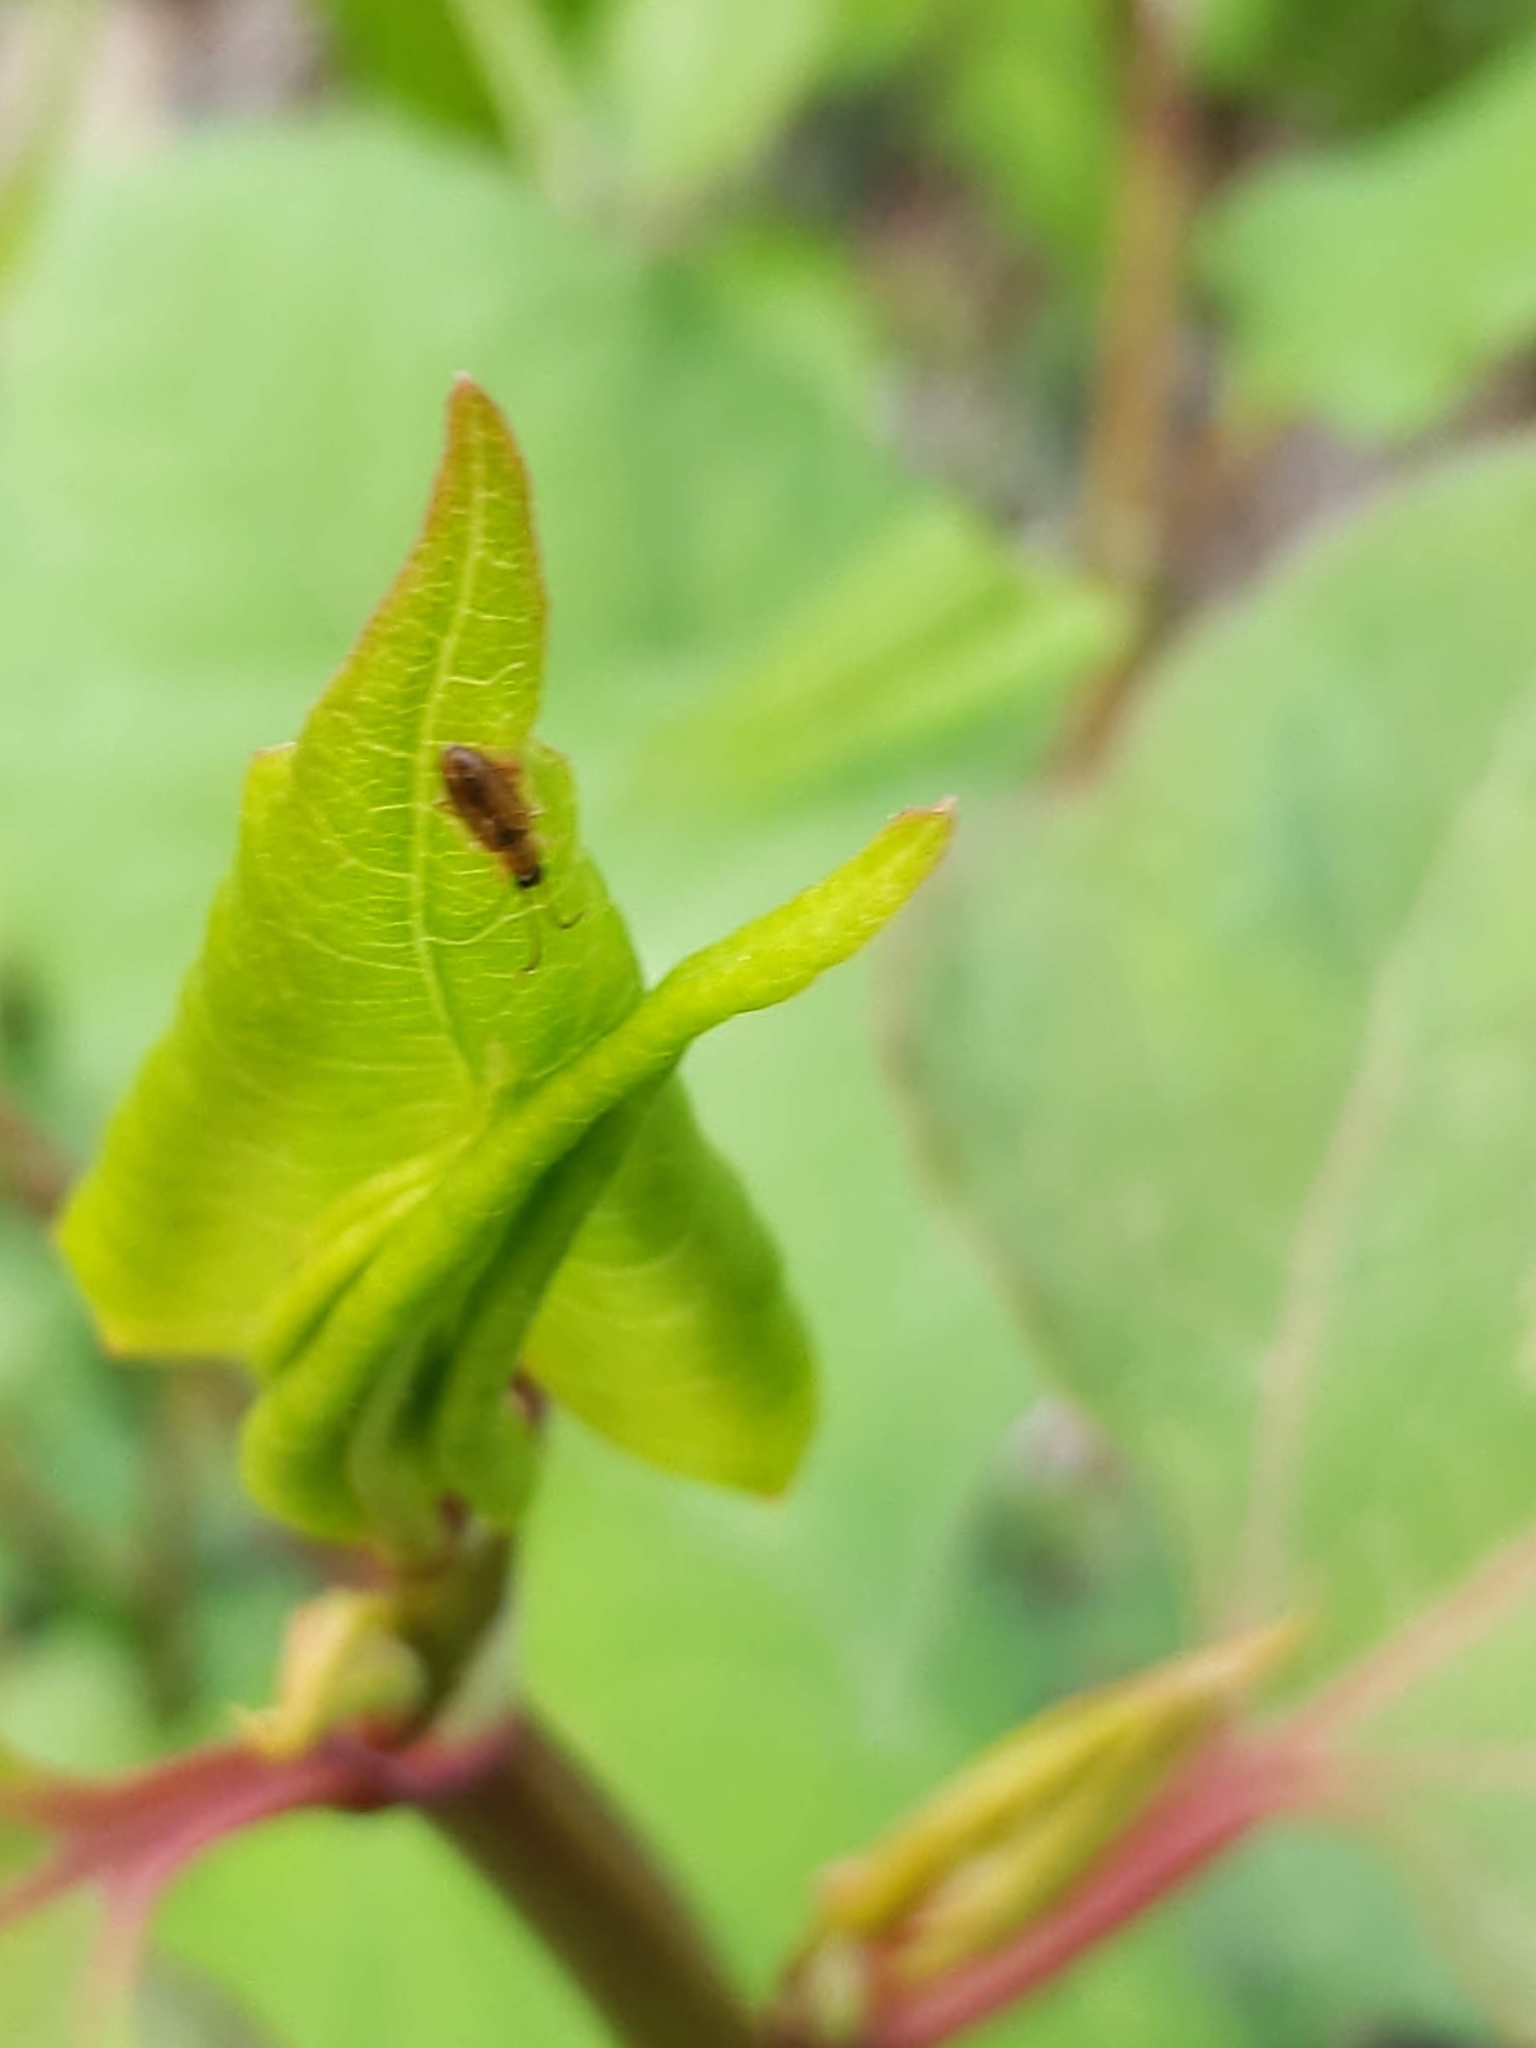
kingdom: Animalia
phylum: Arthropoda
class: Insecta
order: Coleoptera
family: Silvanidae
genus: Telephanus
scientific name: Telephanus velox
